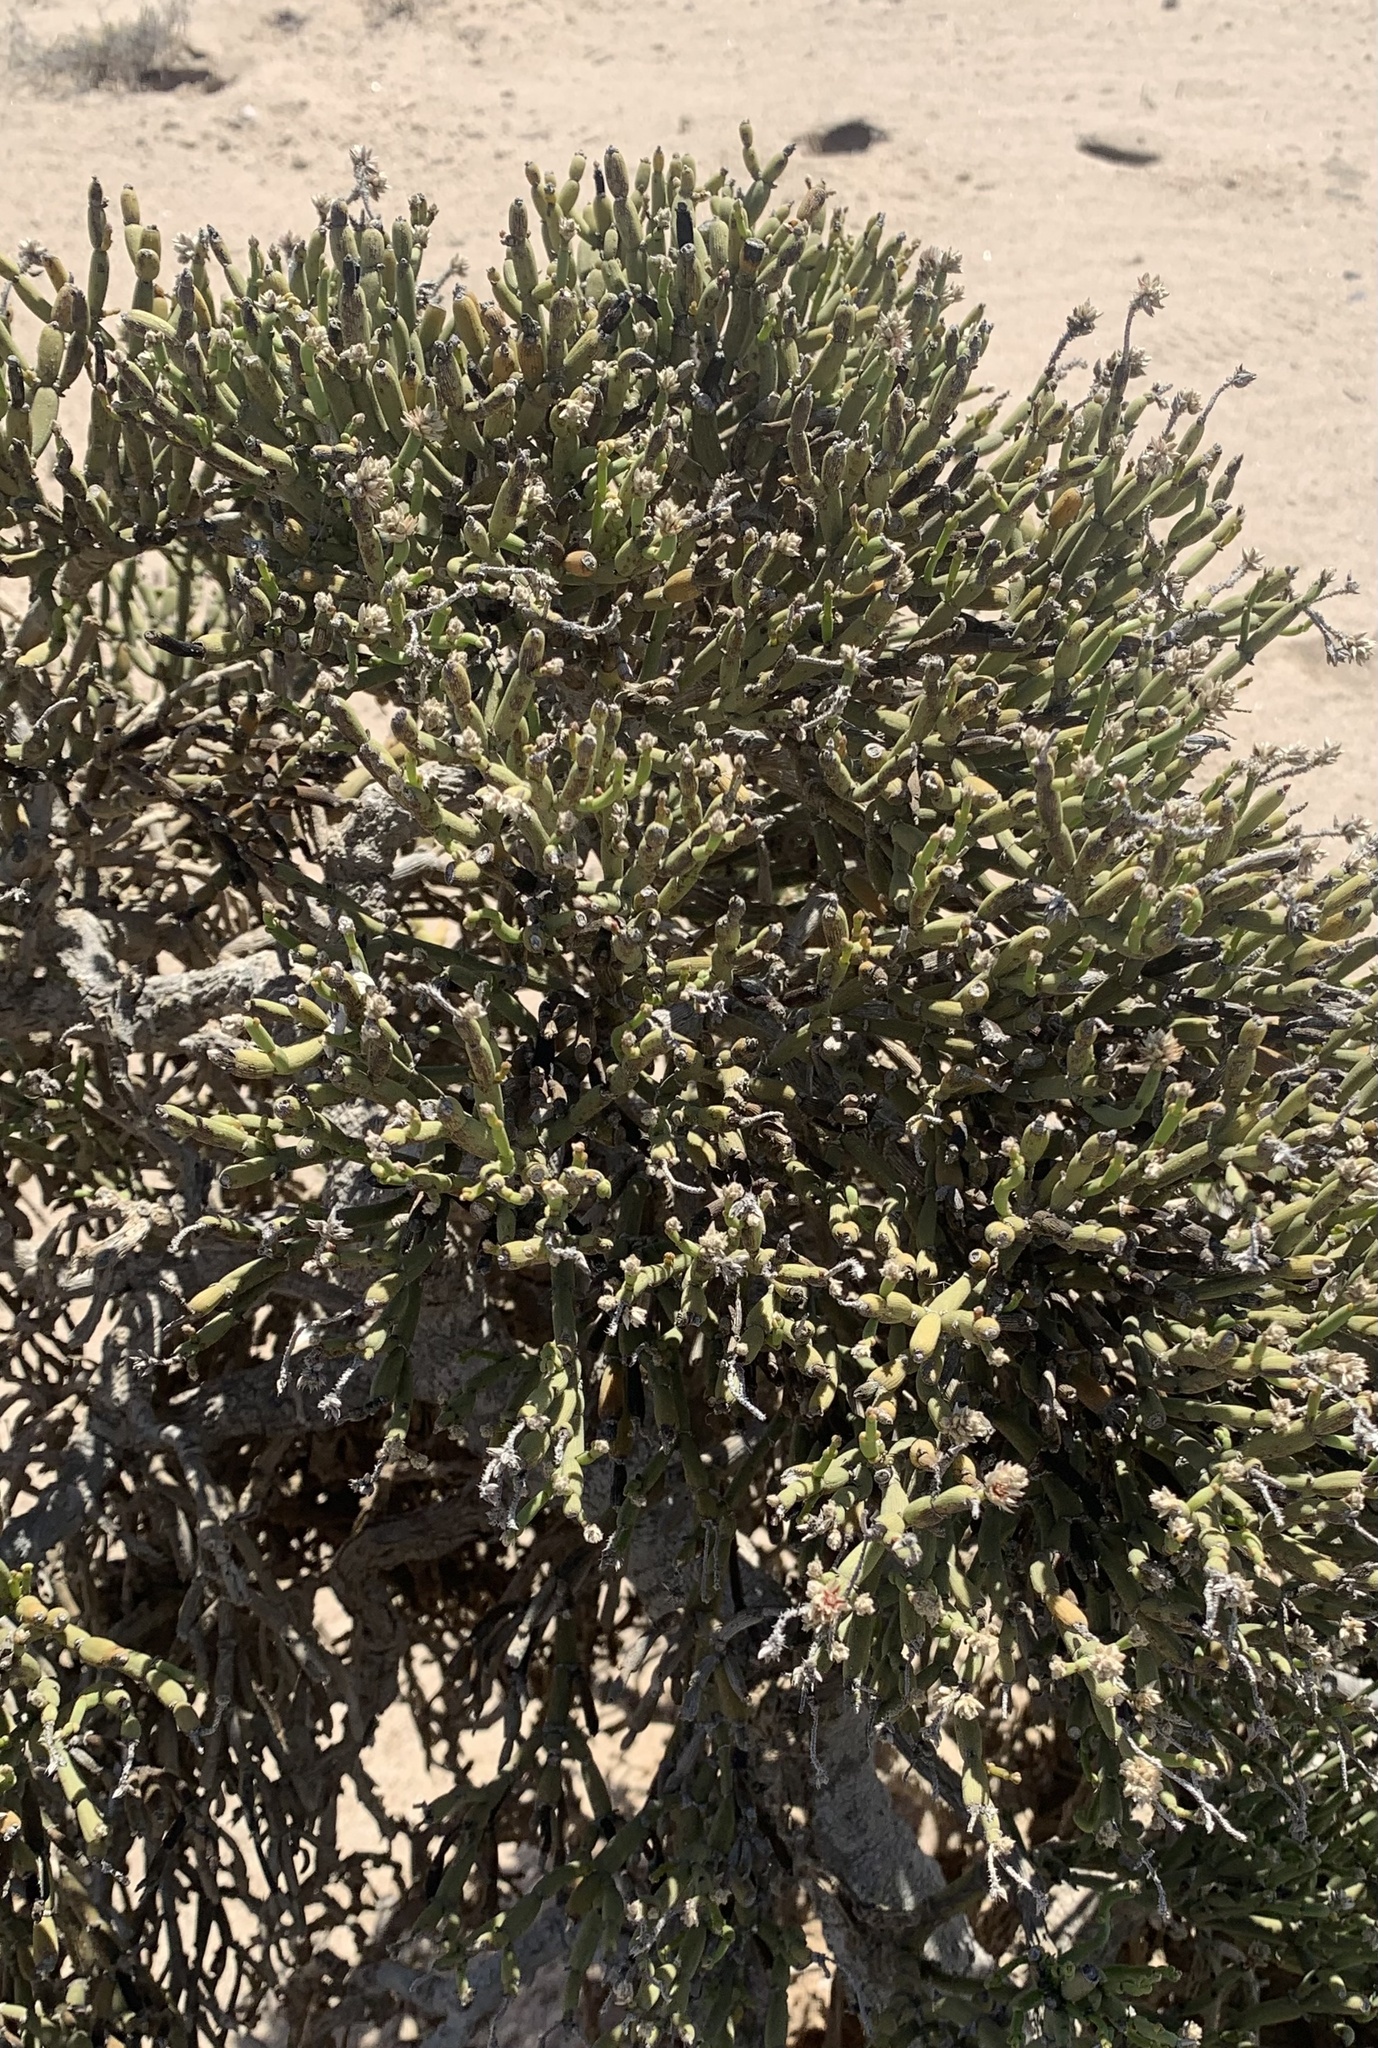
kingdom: Plantae
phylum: Tracheophyta
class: Magnoliopsida
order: Caryophyllales
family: Amaranthaceae
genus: Arthraerva
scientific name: Arthraerva leubnitziae
